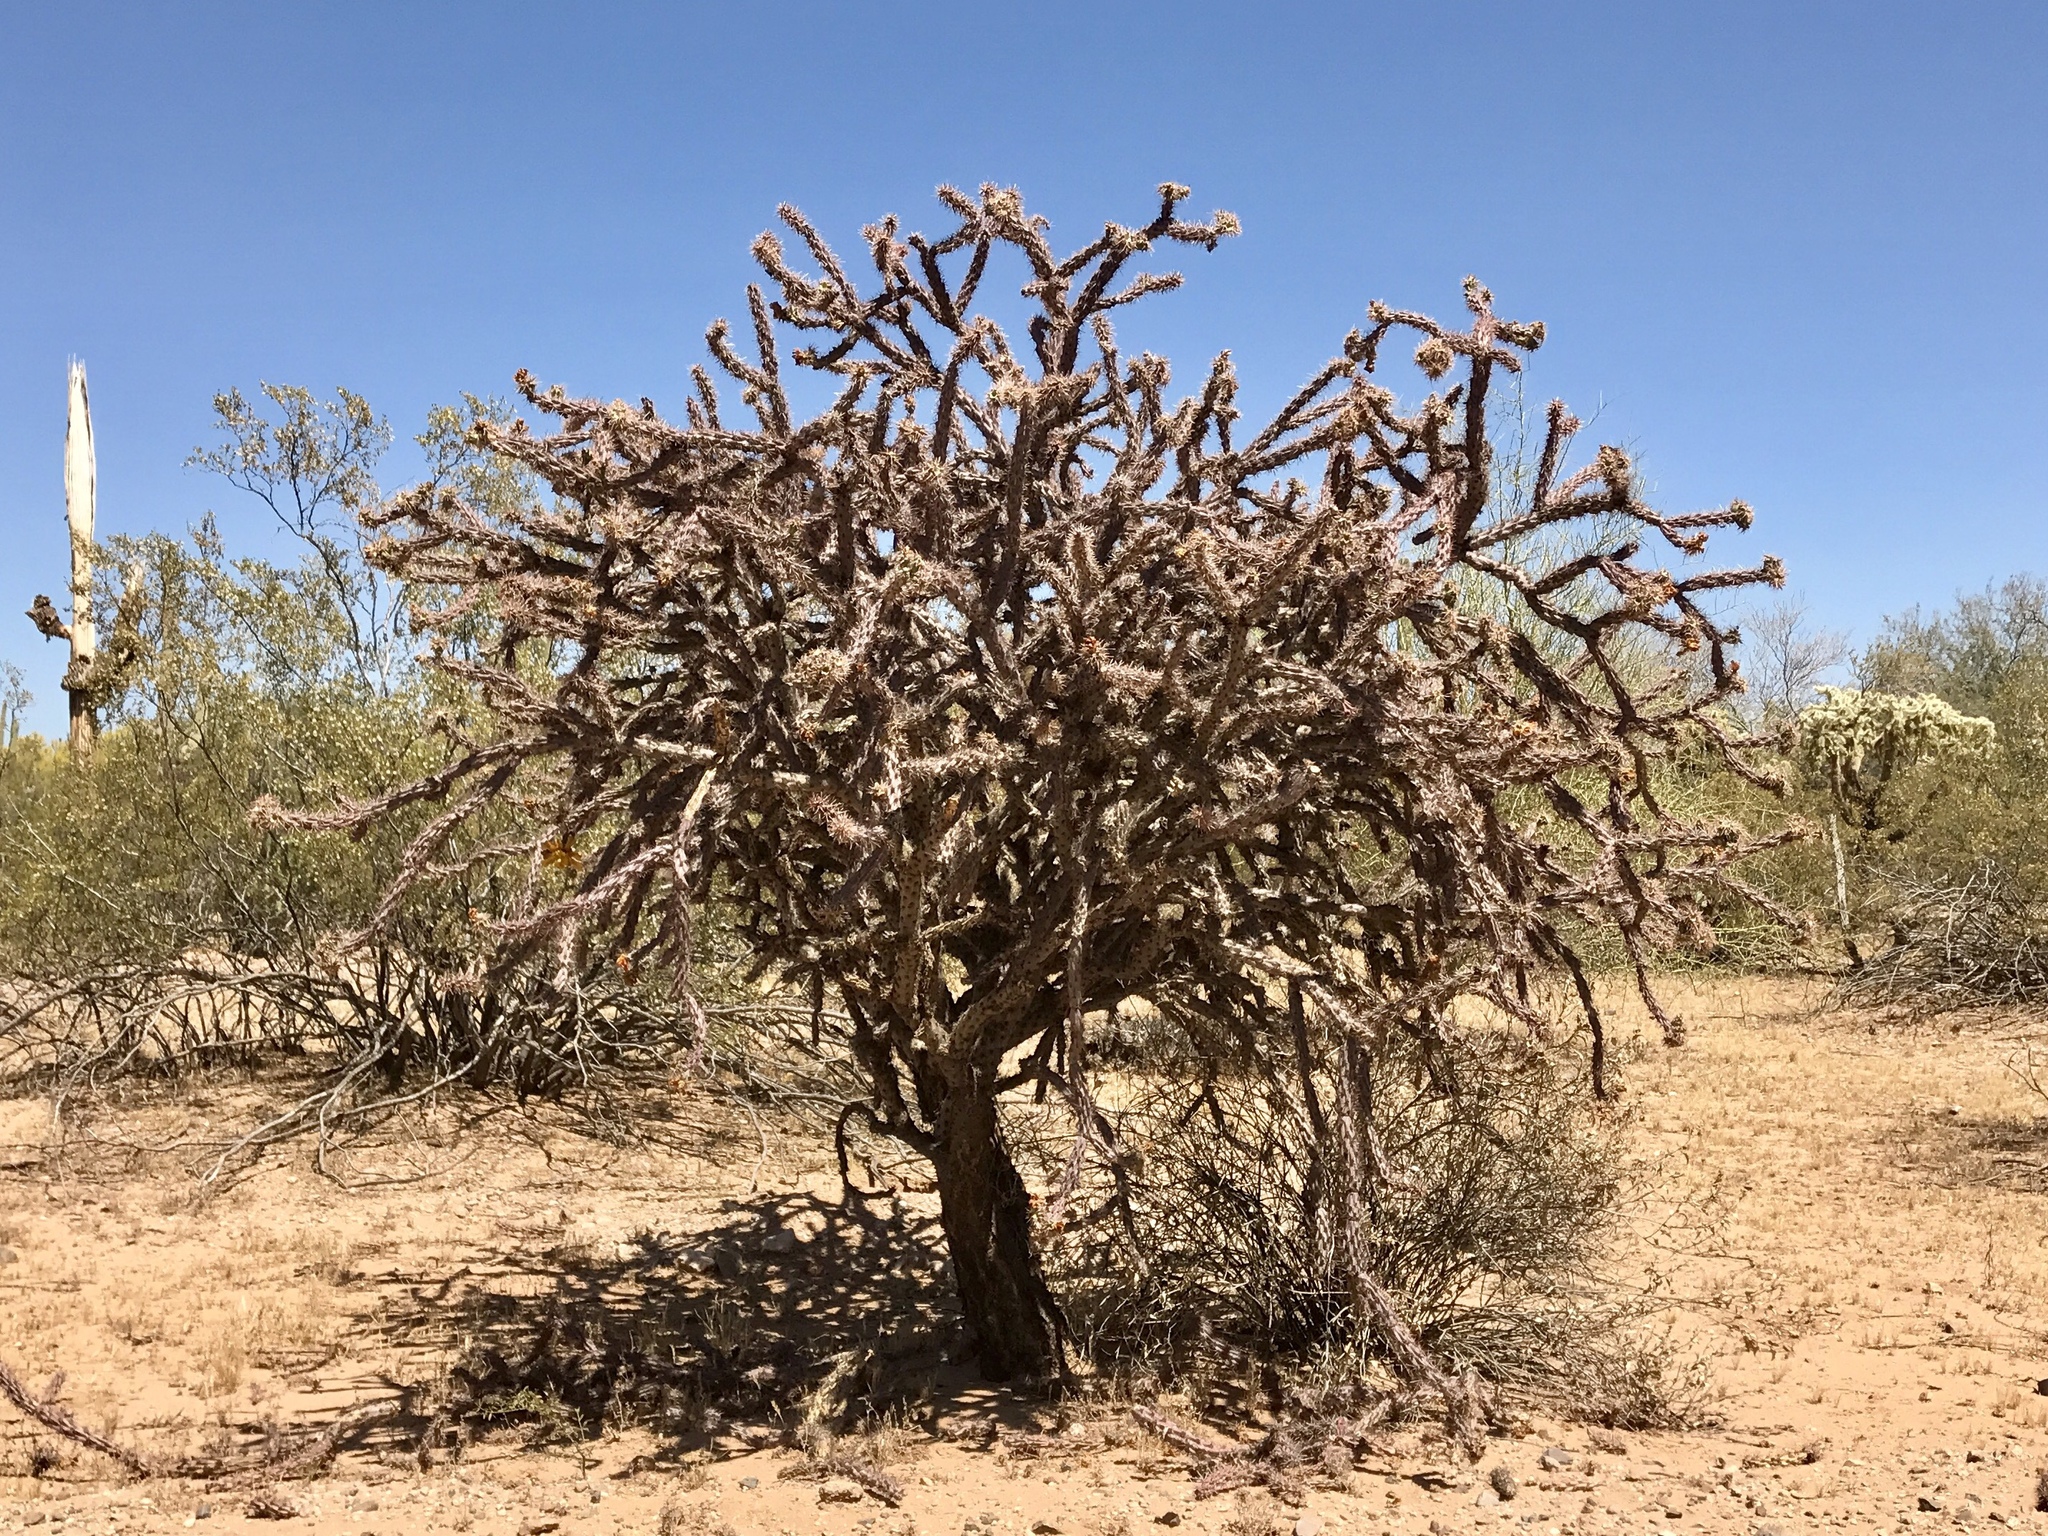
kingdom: Plantae
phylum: Tracheophyta
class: Magnoliopsida
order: Caryophyllales
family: Cactaceae
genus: Cylindropuntia
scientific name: Cylindropuntia thurberi
